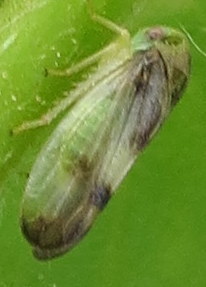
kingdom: Animalia
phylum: Arthropoda
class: Insecta
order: Hemiptera
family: Cicadellidae
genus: Pediopsoides
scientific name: Pediopsoides distinctus
